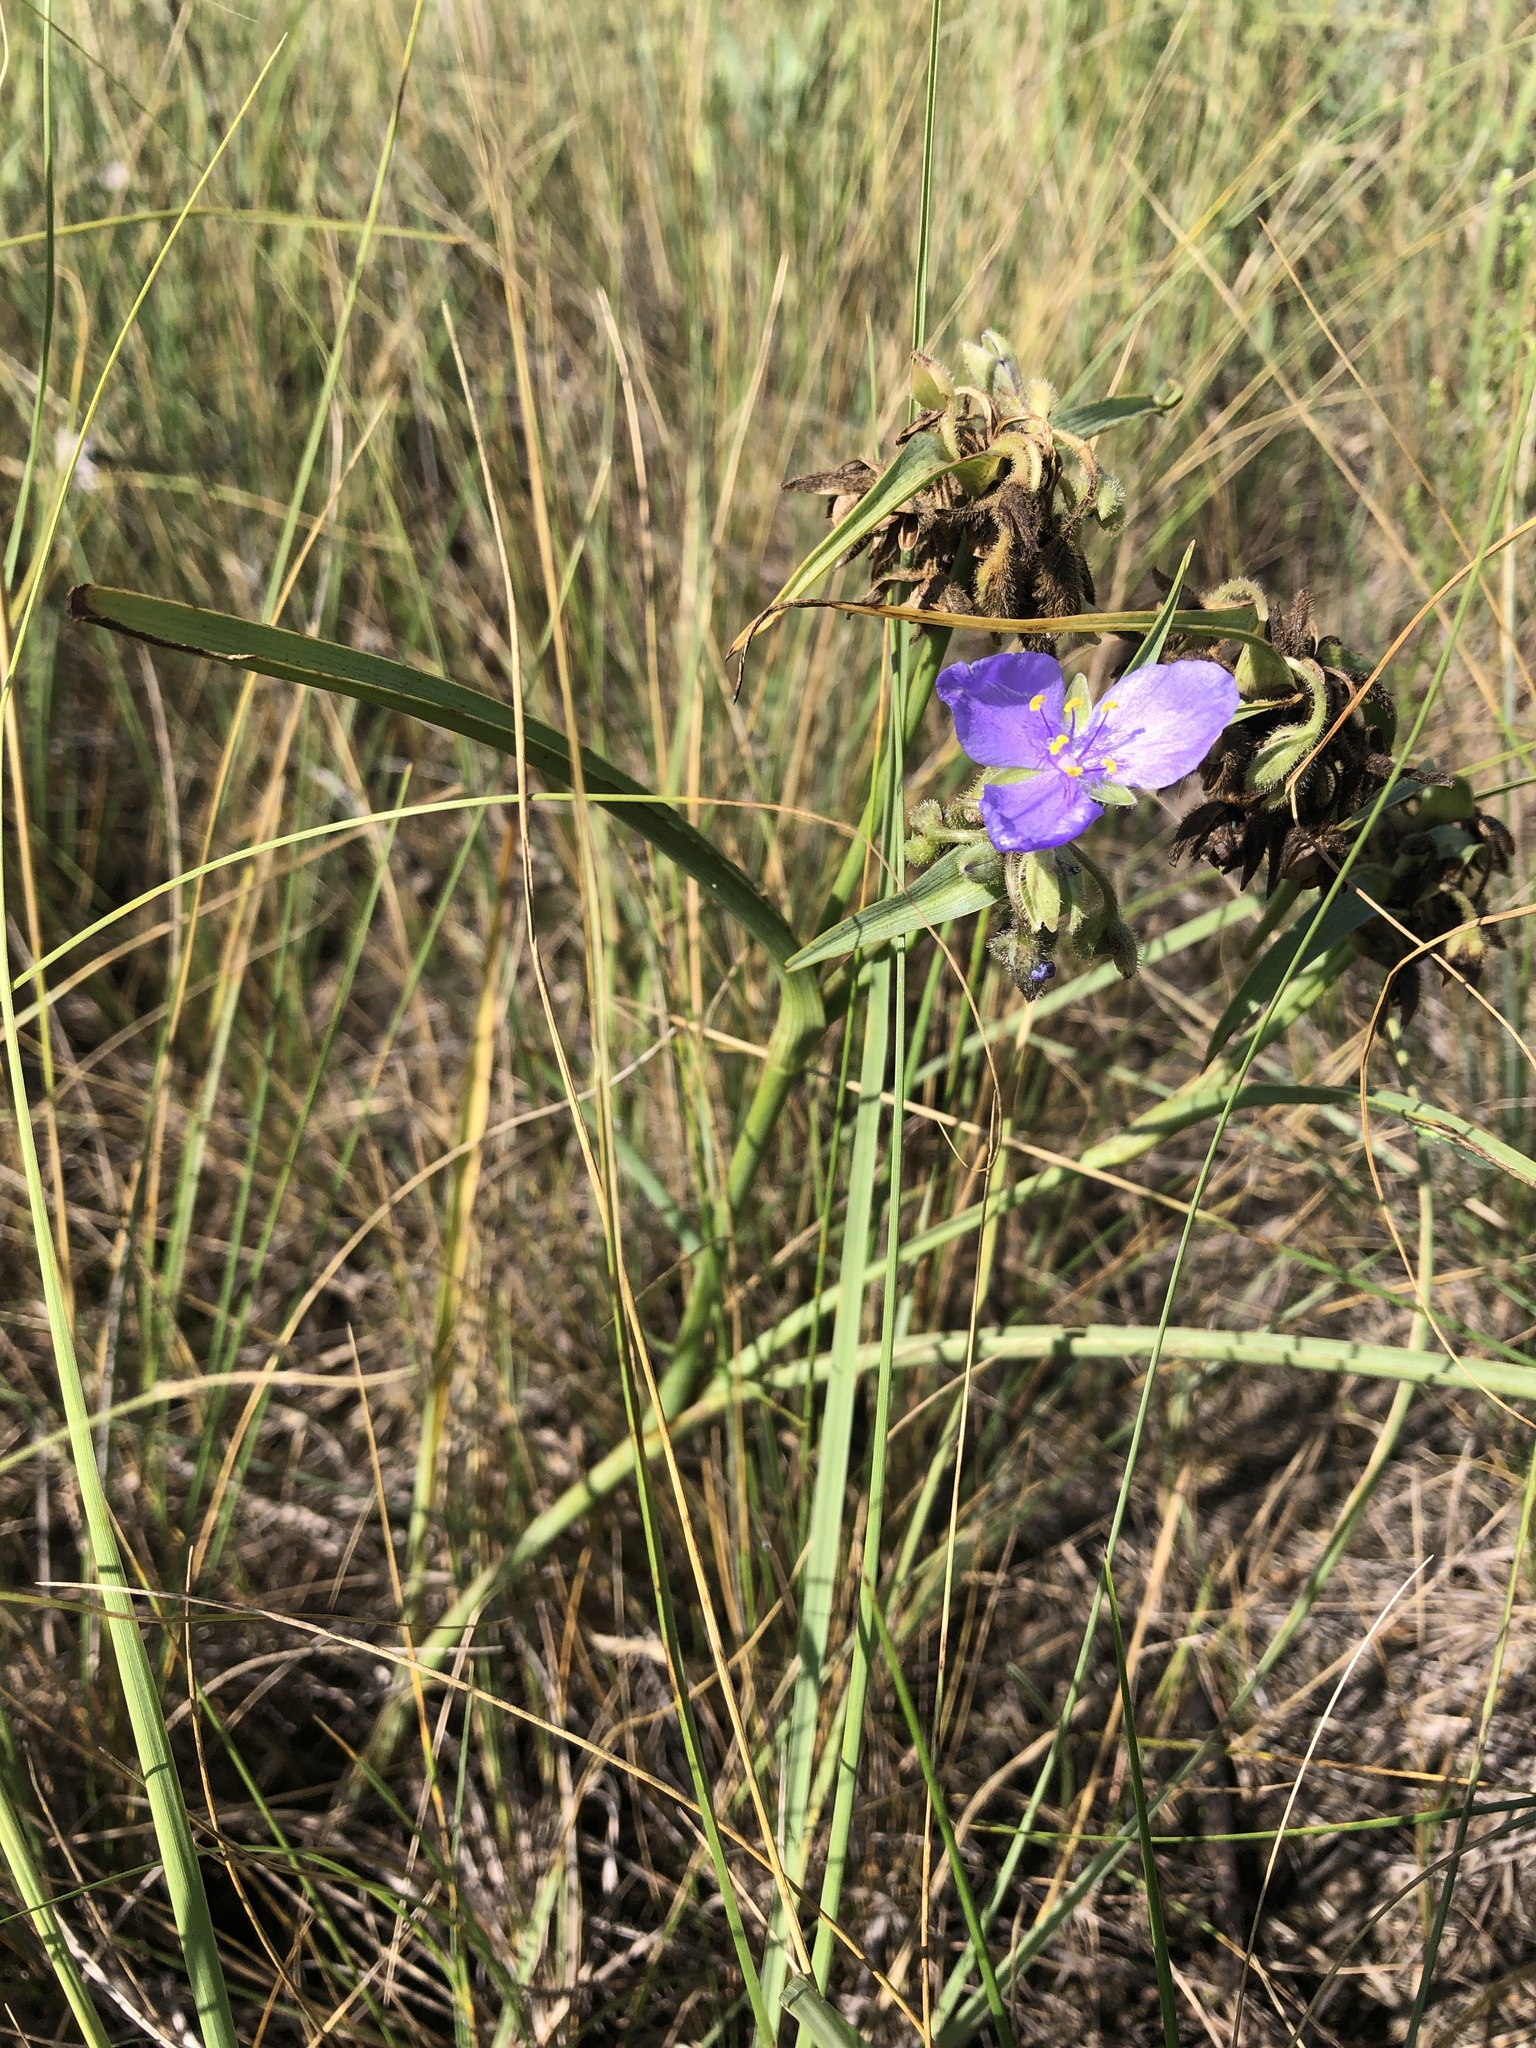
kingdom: Plantae
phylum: Tracheophyta
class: Liliopsida
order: Commelinales
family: Commelinaceae
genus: Tradescantia
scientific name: Tradescantia occidentalis
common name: Prairie spiderwort
